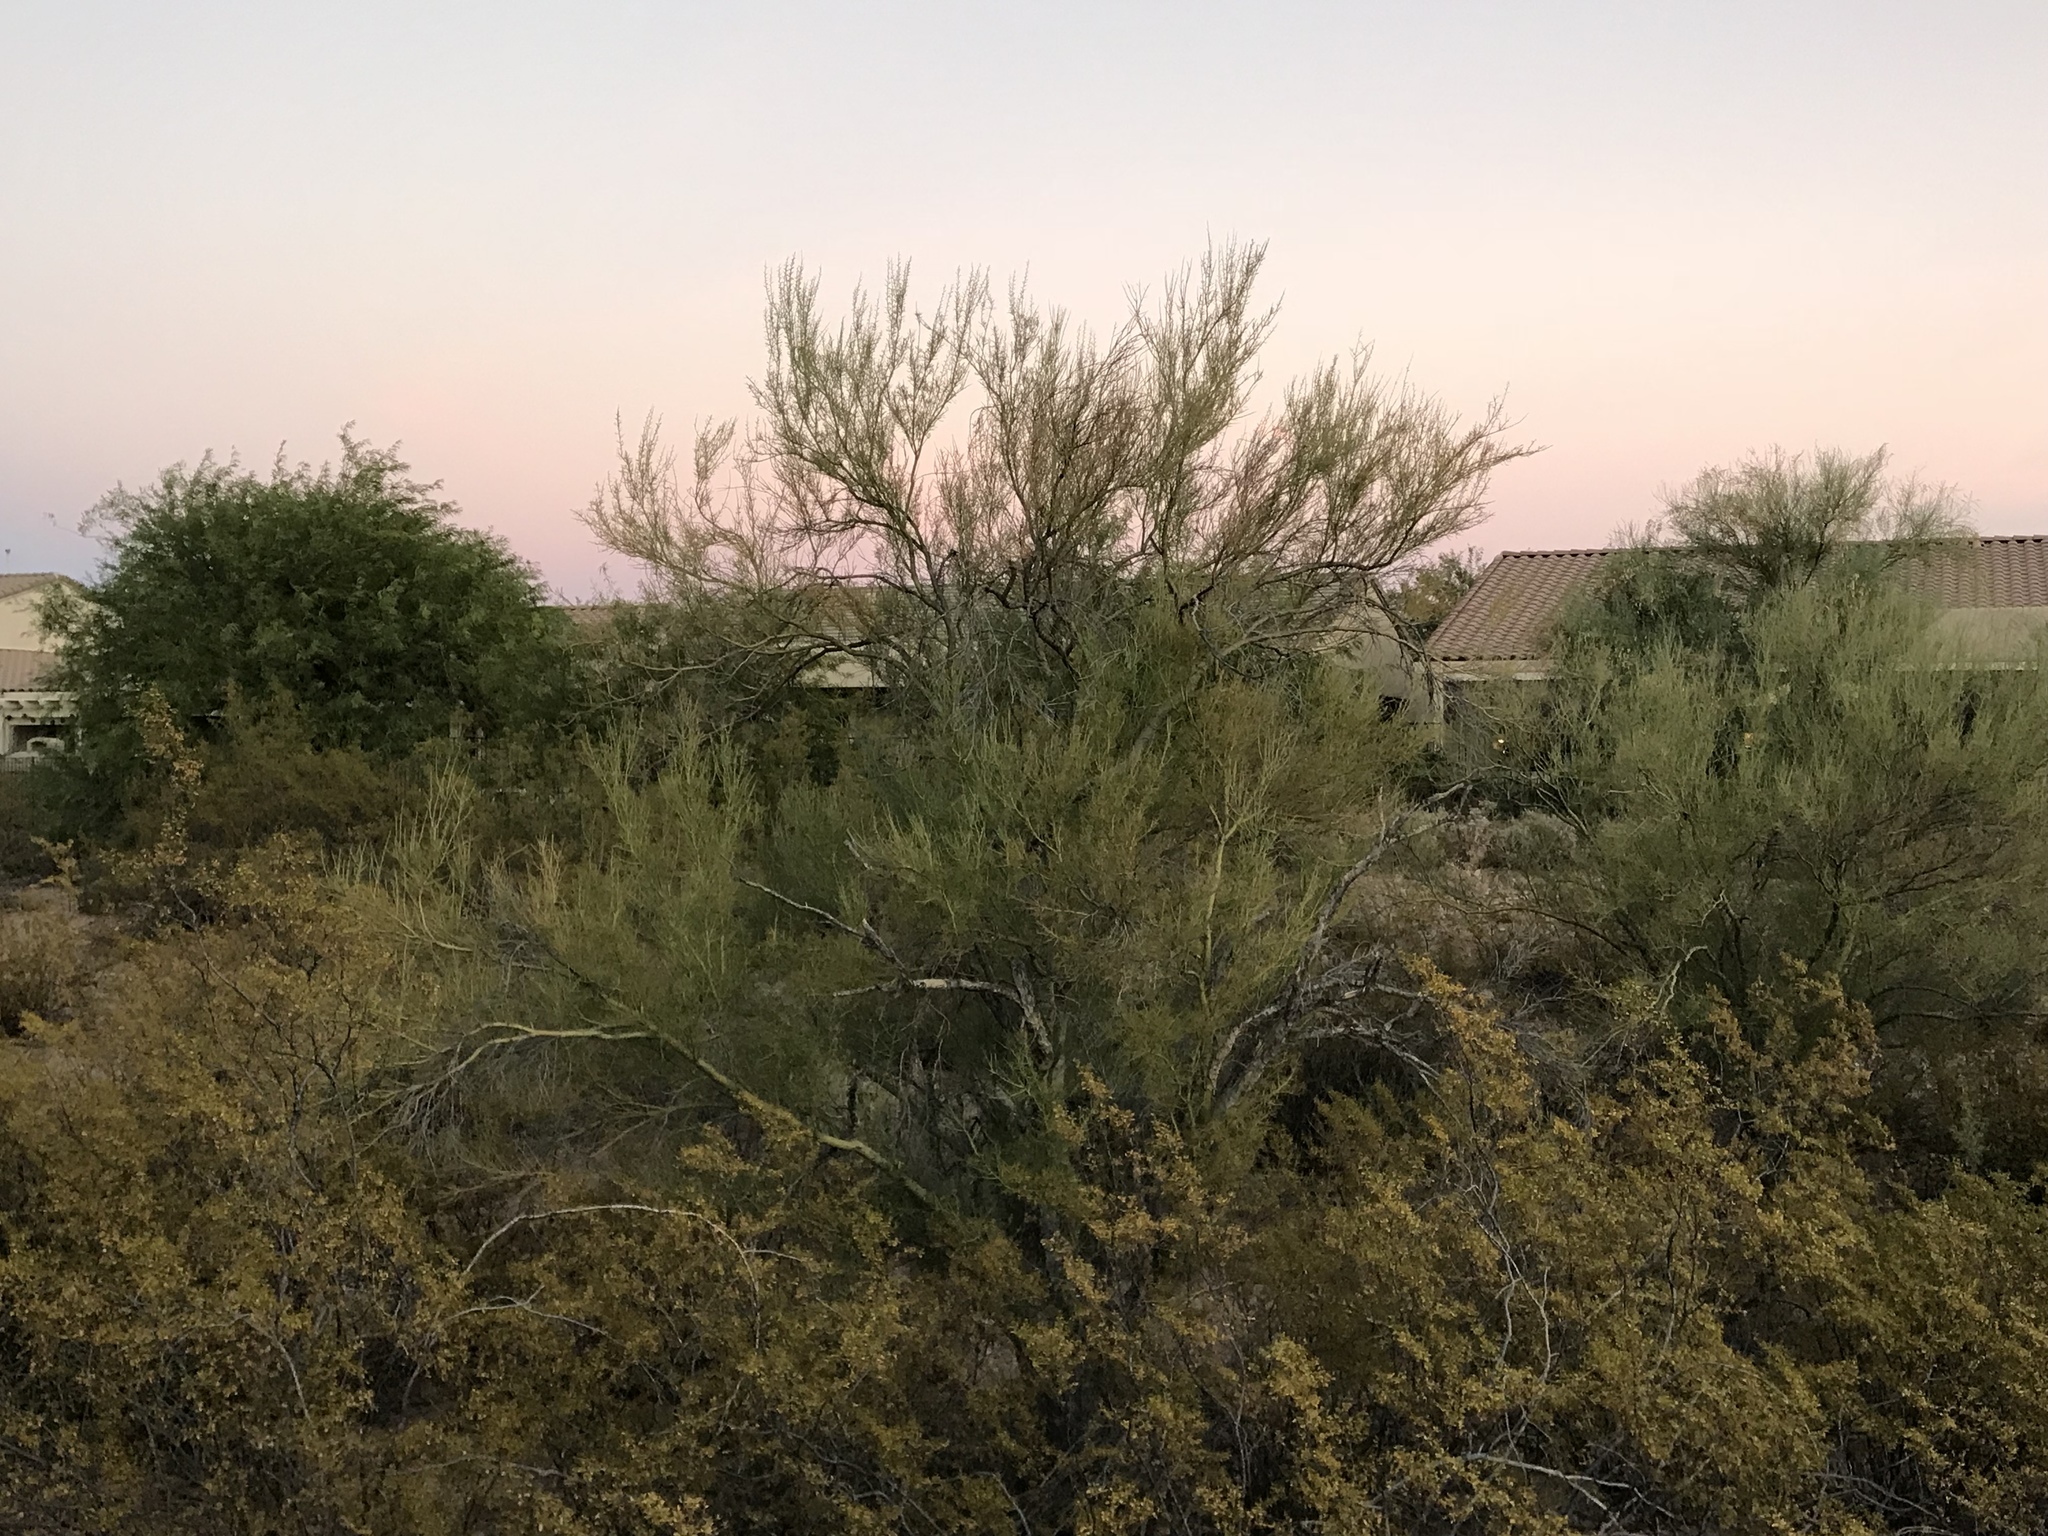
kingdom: Plantae
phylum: Tracheophyta
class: Magnoliopsida
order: Fabales
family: Fabaceae
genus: Parkinsonia
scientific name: Parkinsonia microphylla
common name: Yellow paloverde
